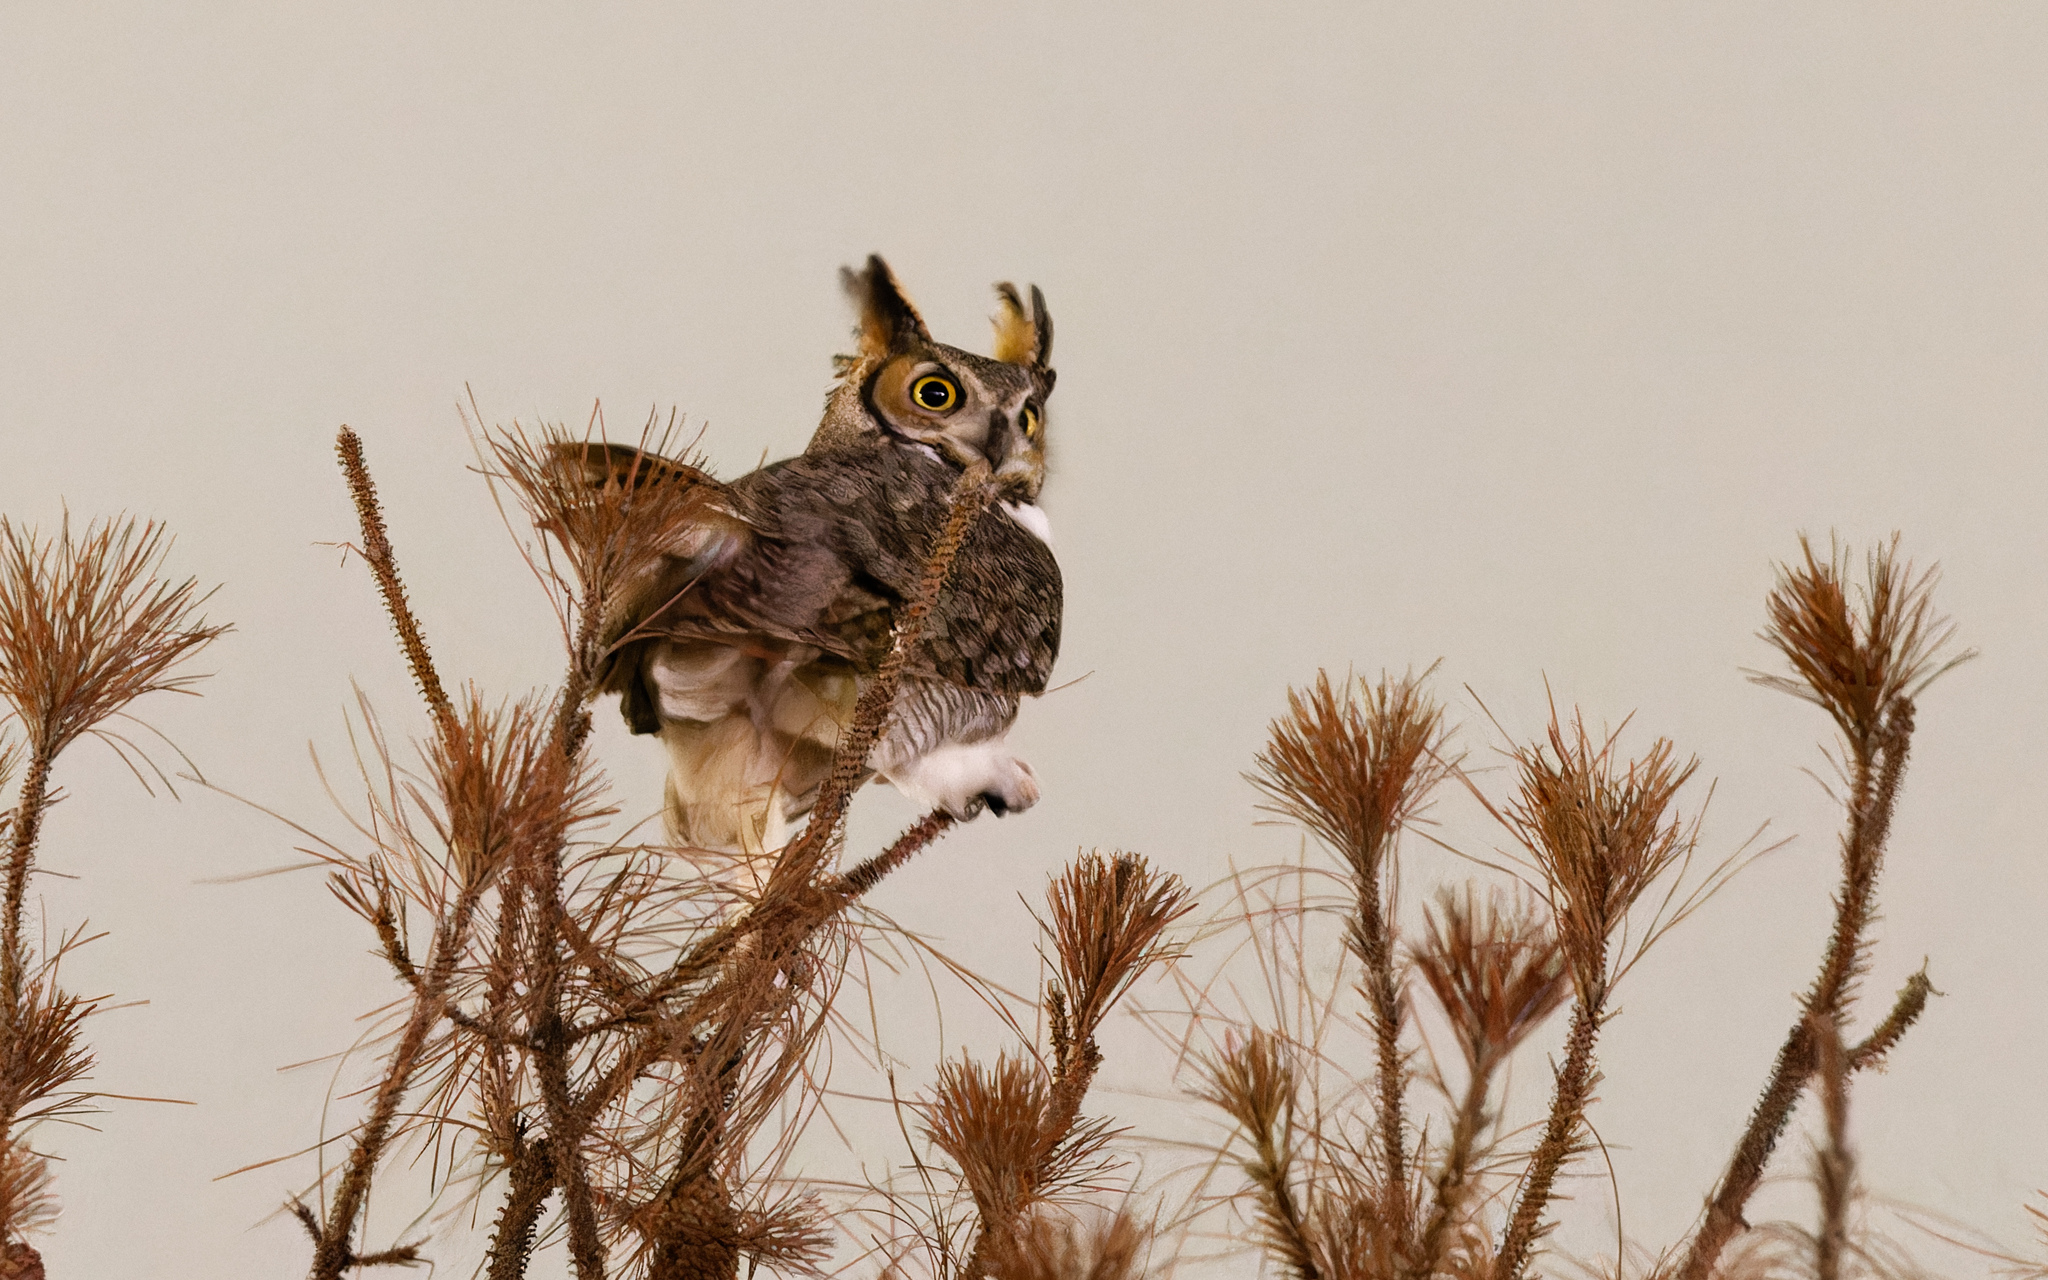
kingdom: Animalia
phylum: Chordata
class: Aves
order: Strigiformes
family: Strigidae
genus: Bubo
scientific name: Bubo virginianus
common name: Great horned owl
